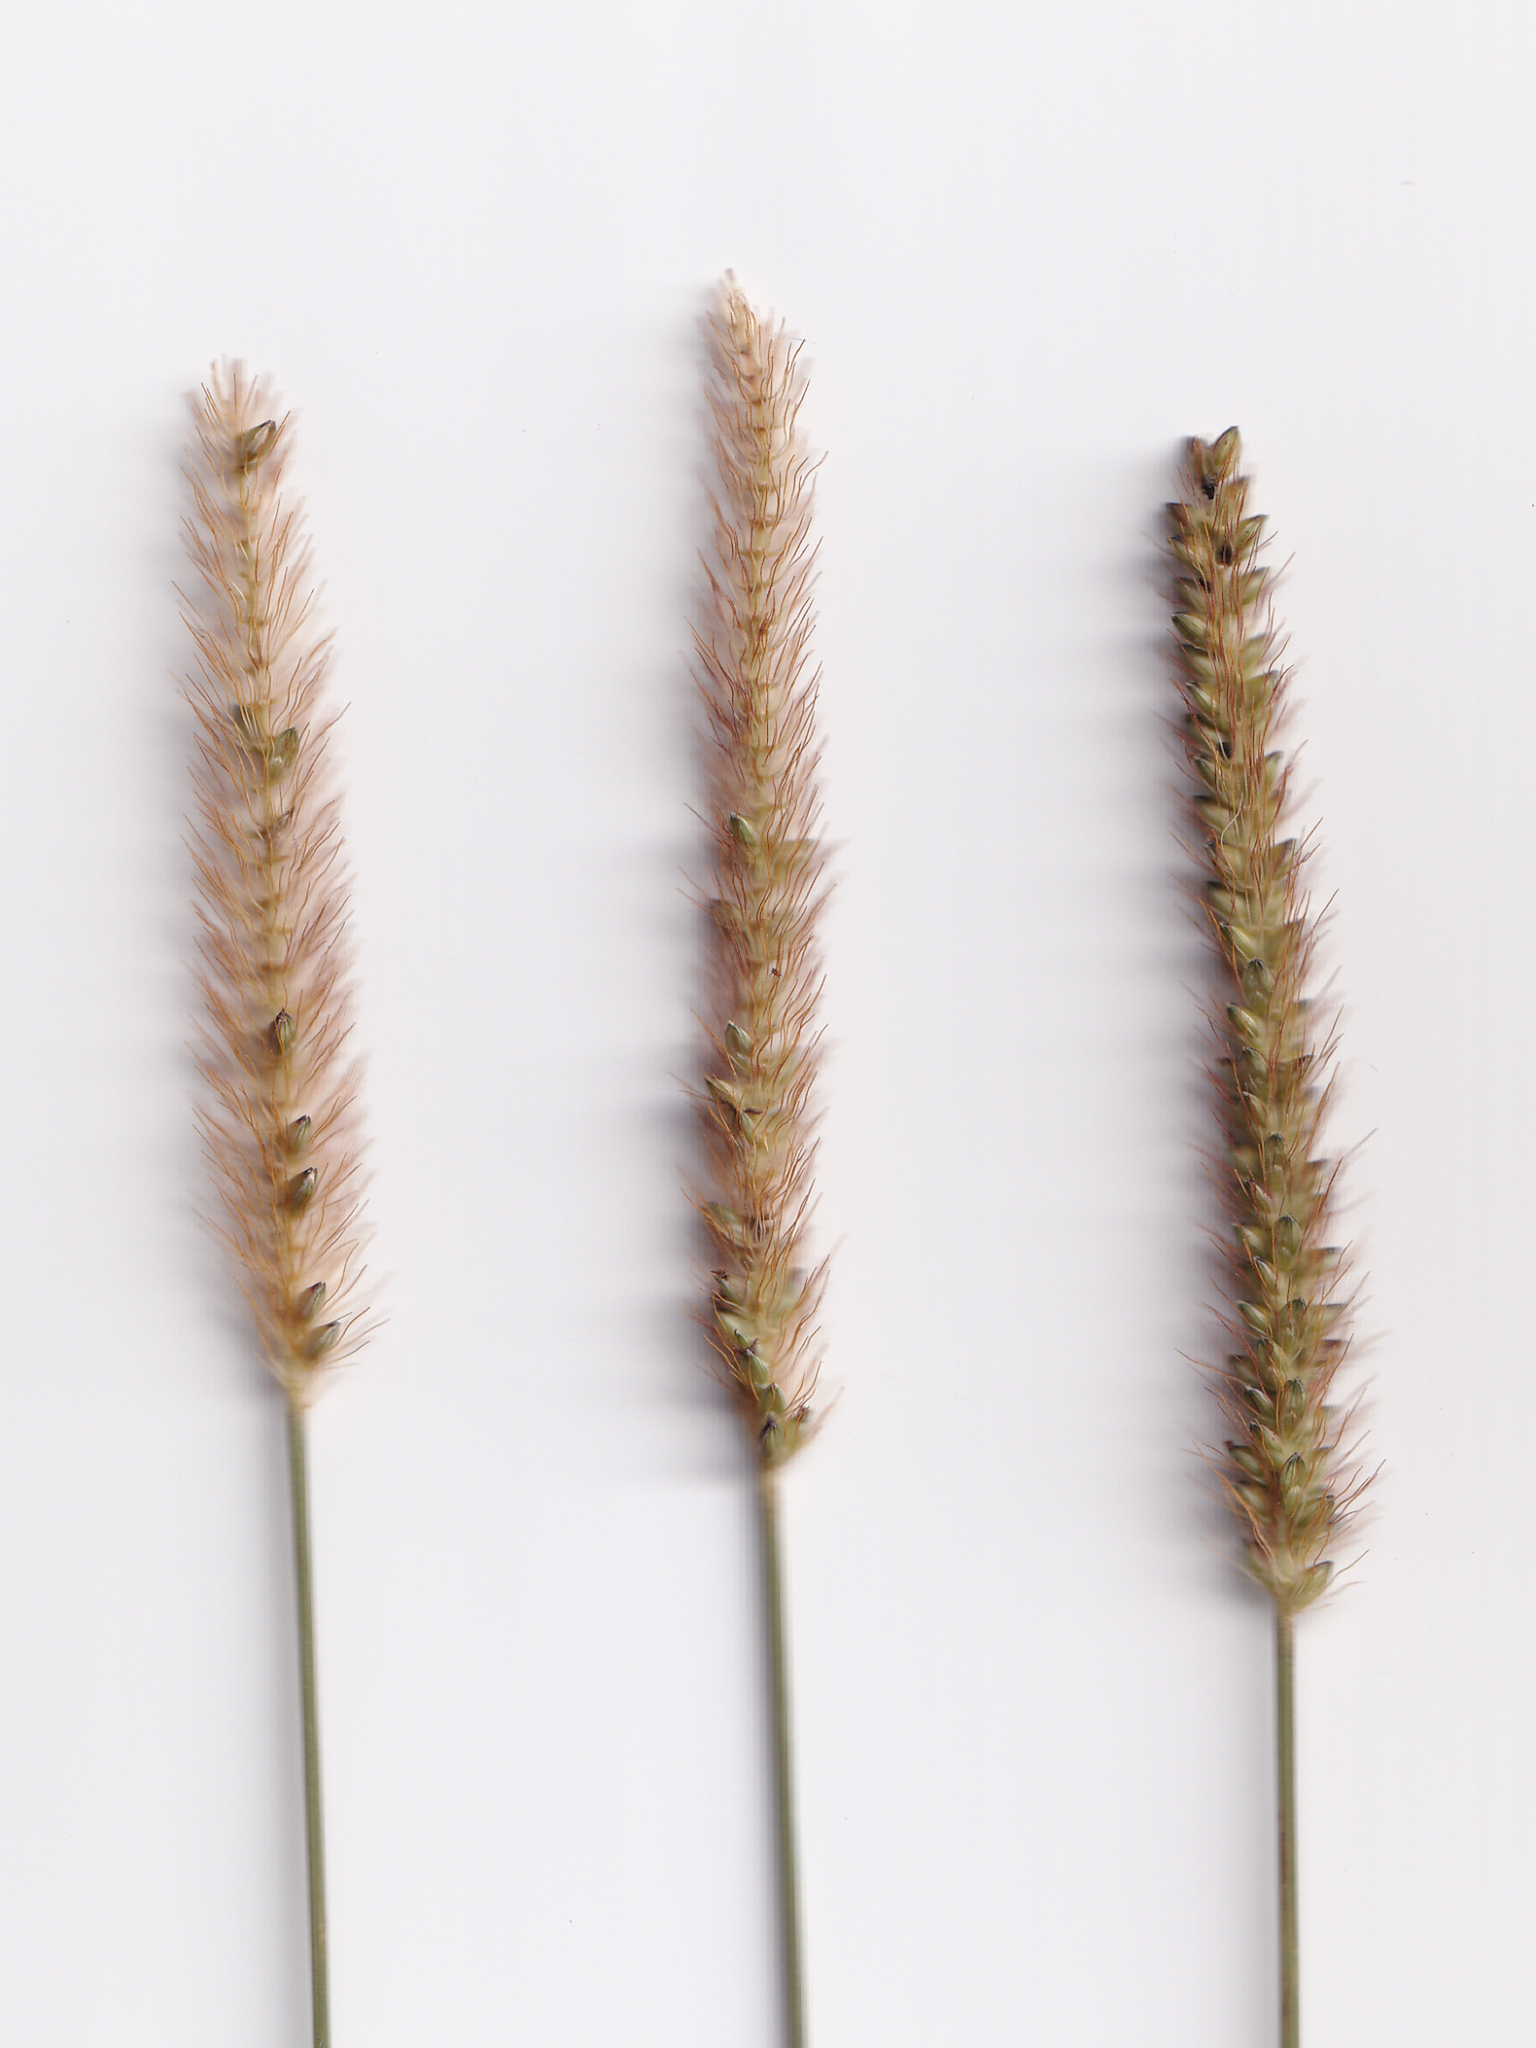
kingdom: Plantae
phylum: Tracheophyta
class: Liliopsida
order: Poales
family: Poaceae
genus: Setaria
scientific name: Setaria parviflora
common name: Knotroot bristle-grass
